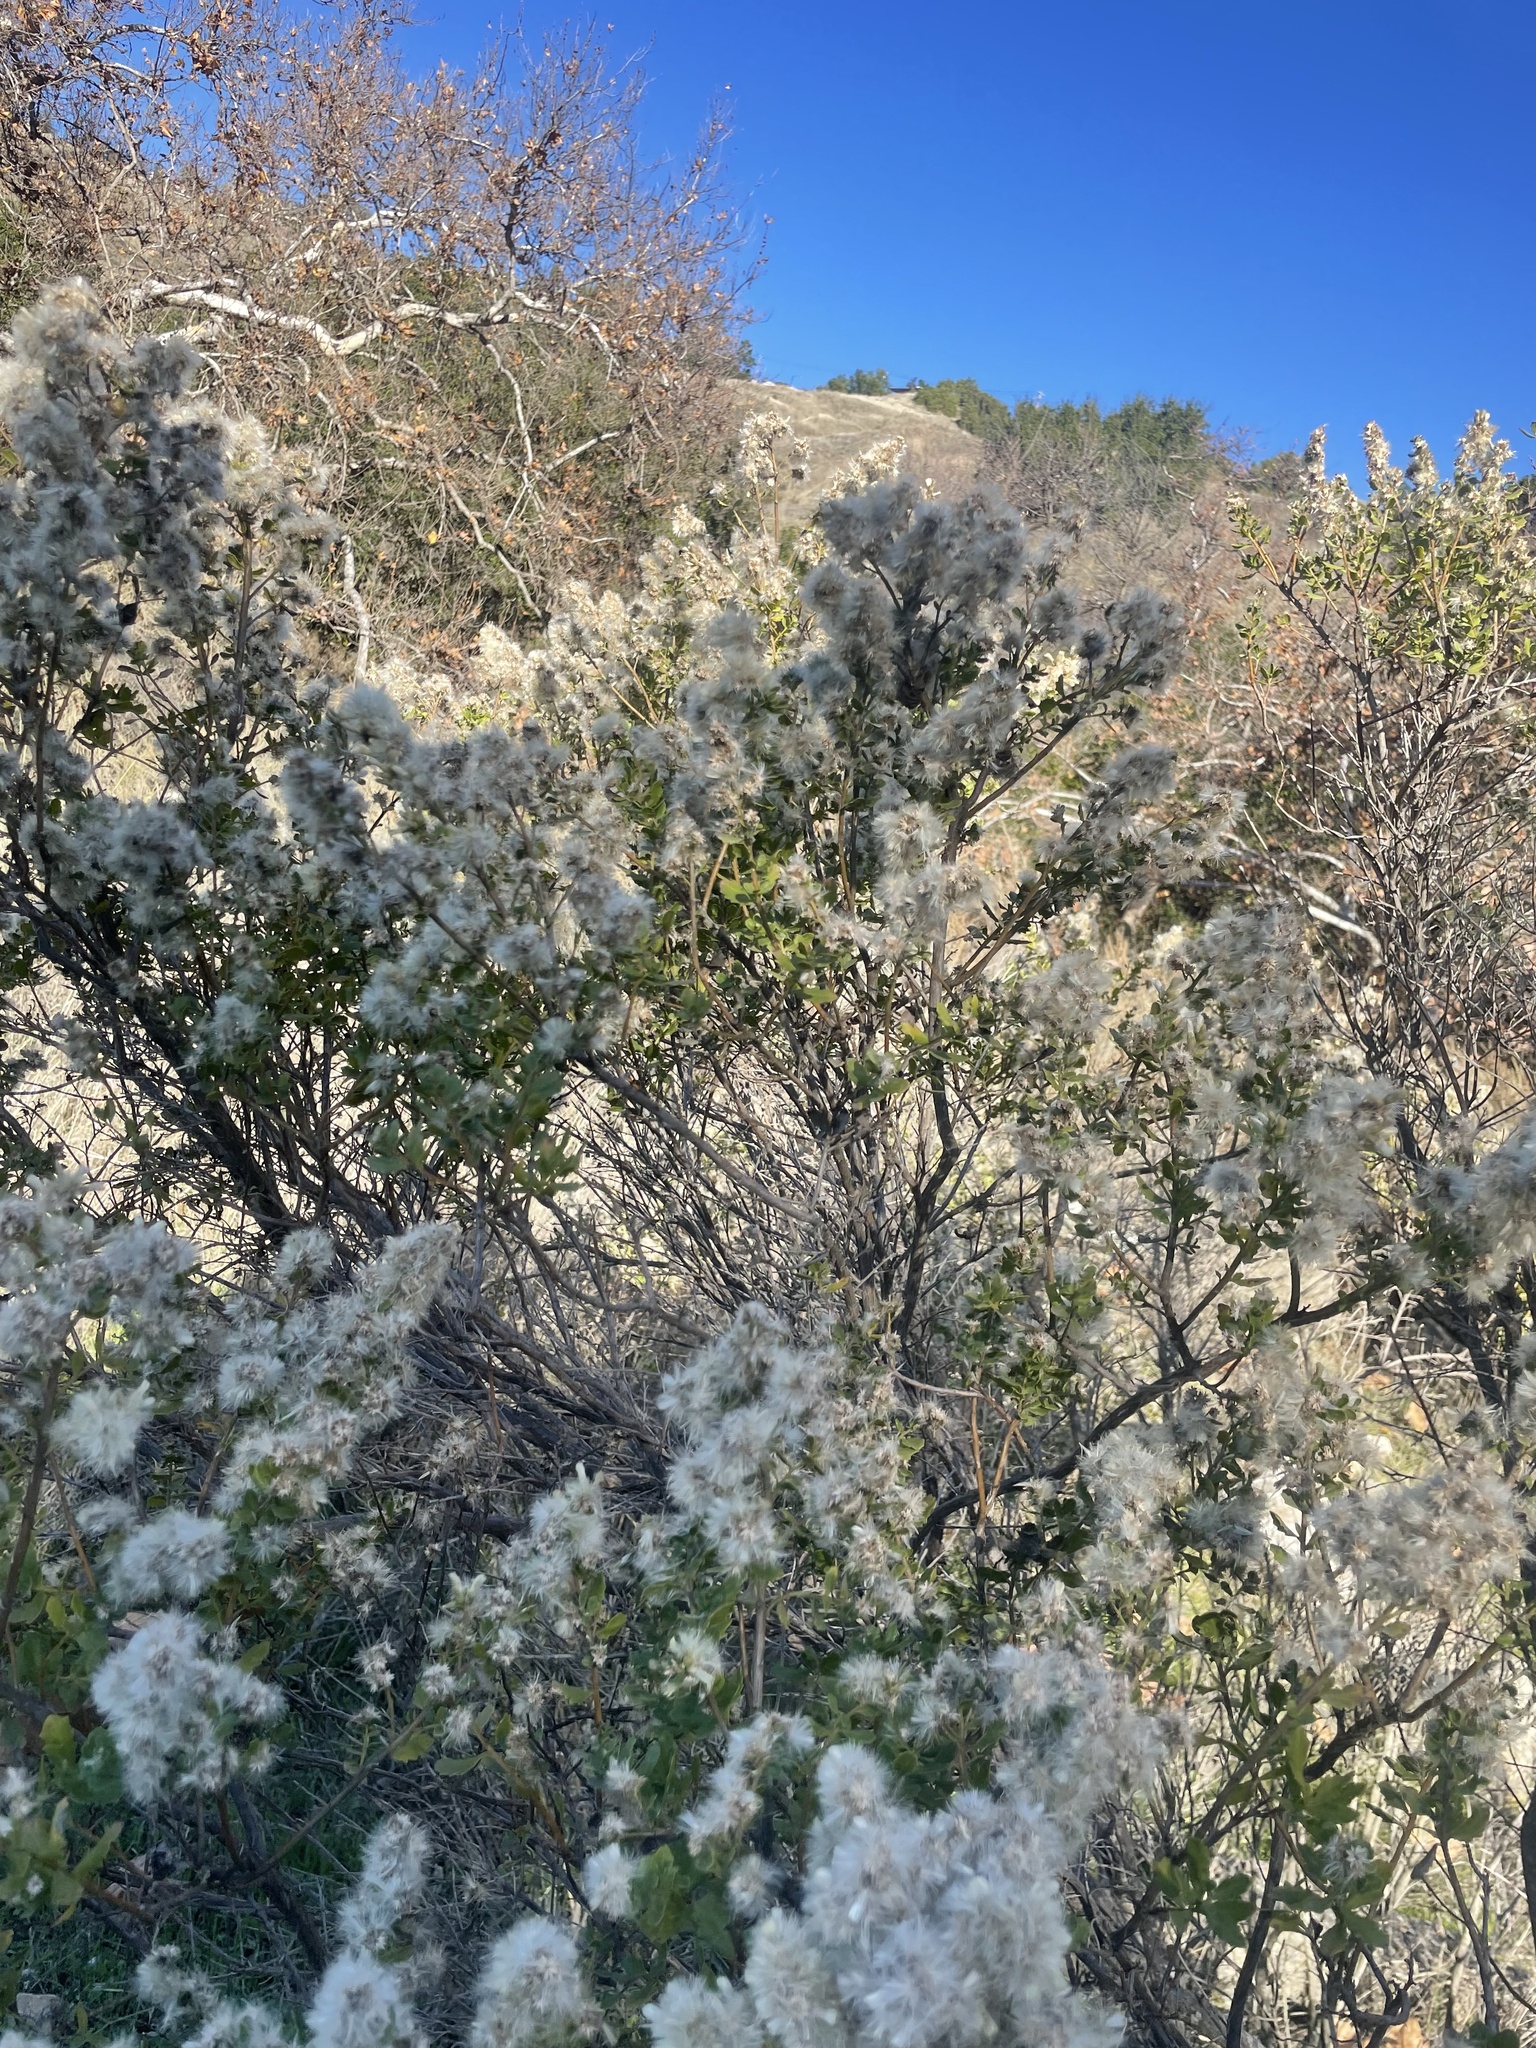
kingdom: Animalia
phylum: Arthropoda
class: Insecta
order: Diptera
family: Cecidomyiidae
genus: Rhopalomyia
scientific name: Rhopalomyia californica
